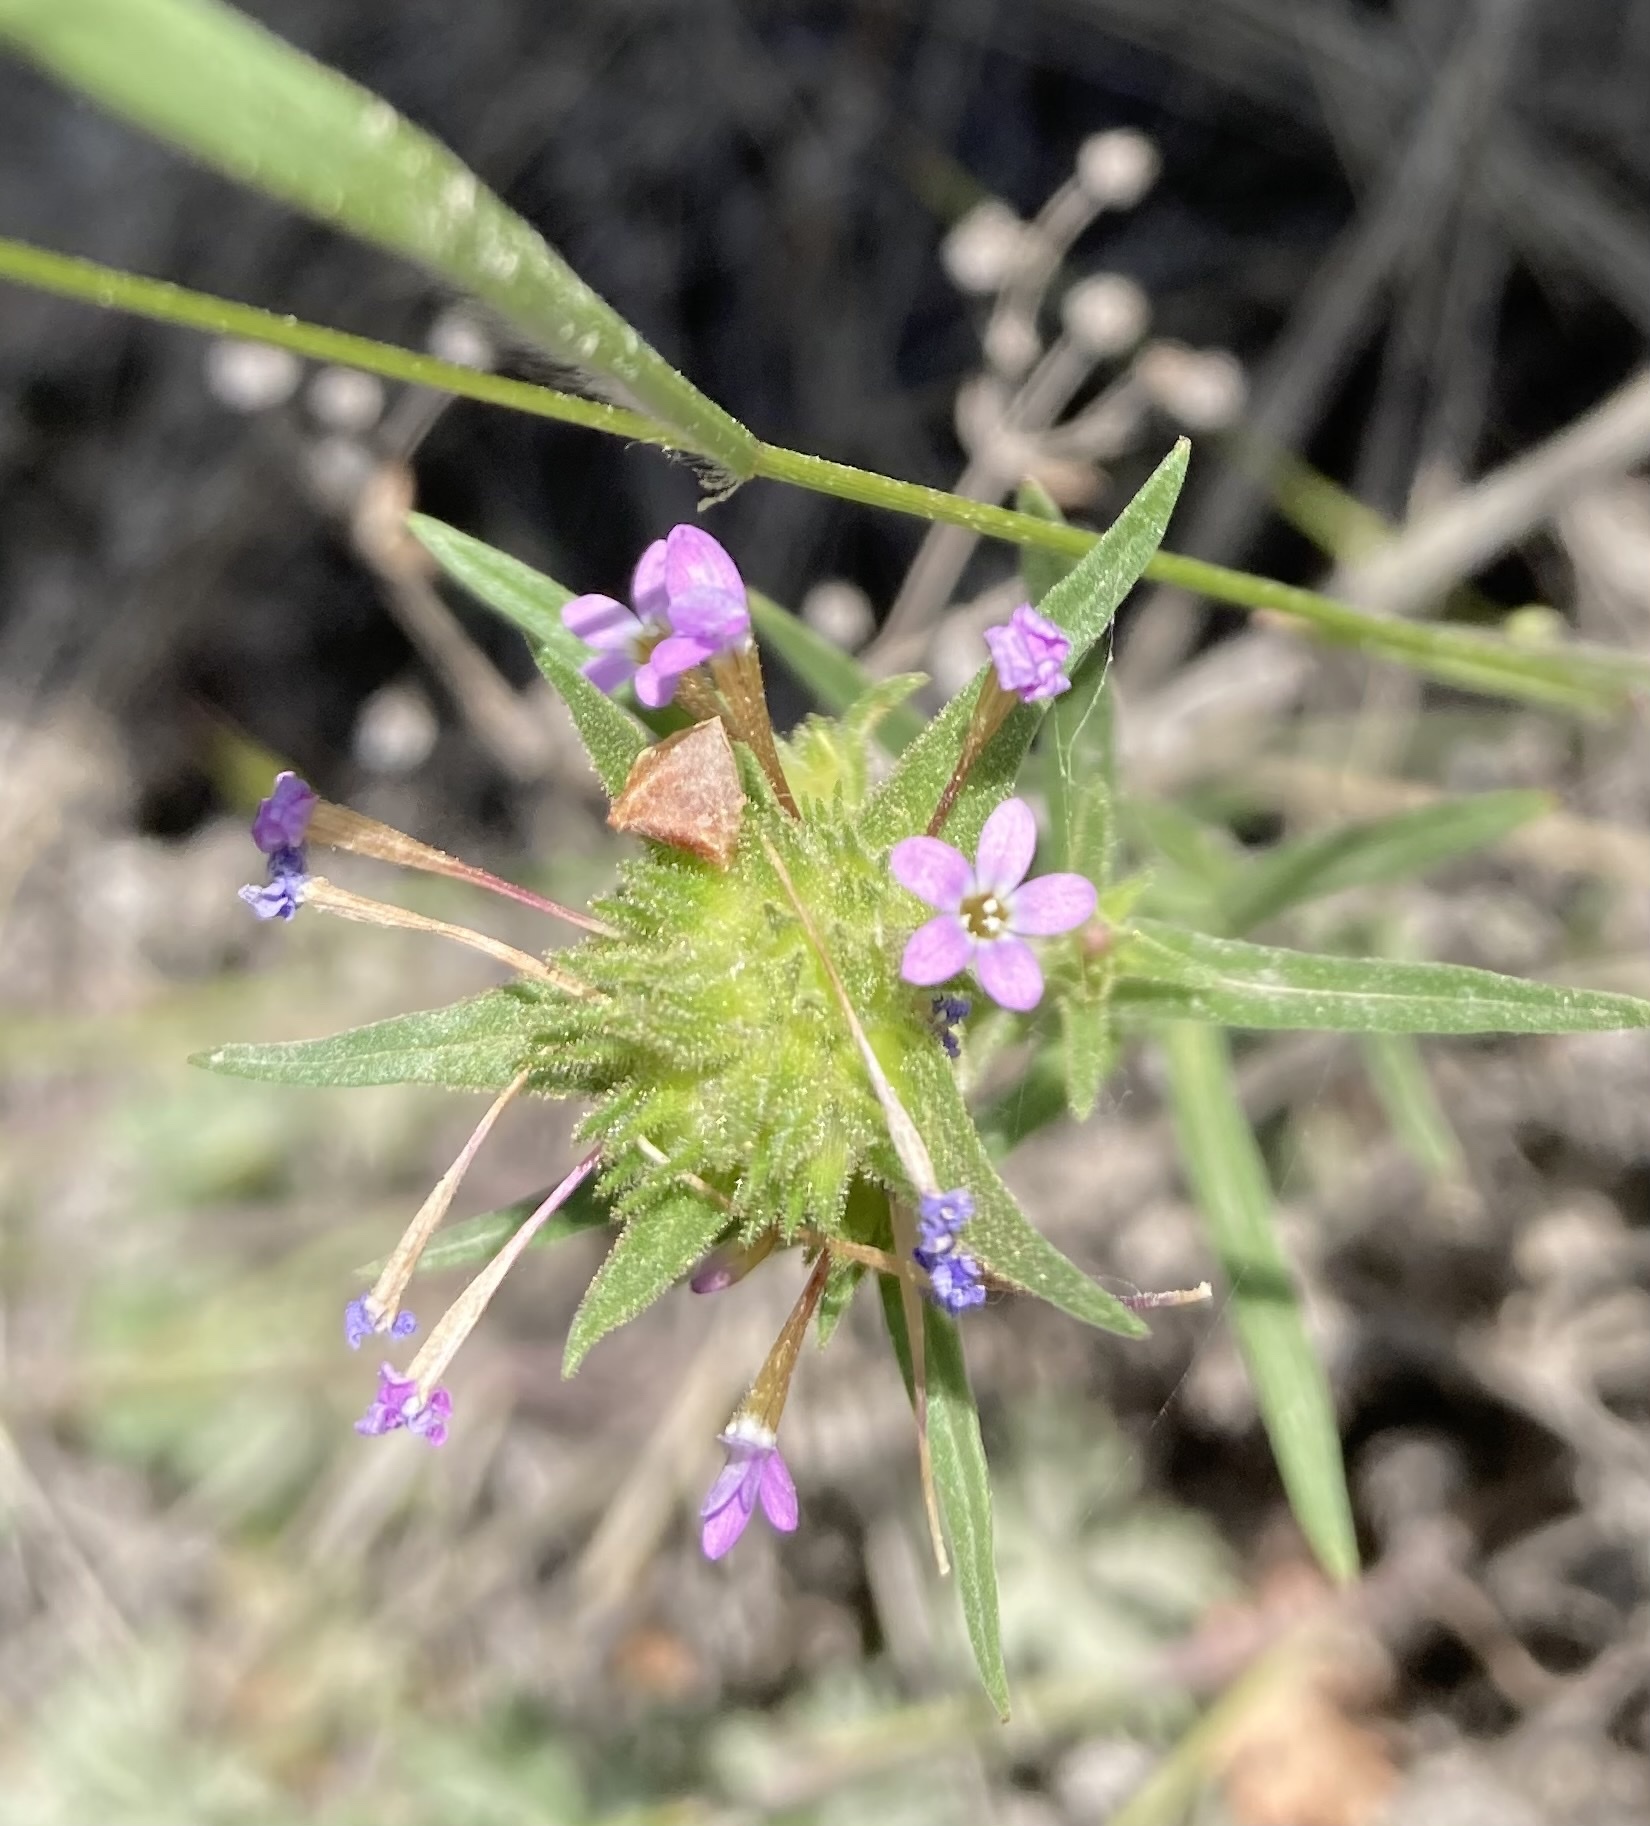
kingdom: Plantae
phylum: Tracheophyta
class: Magnoliopsida
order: Ericales
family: Polemoniaceae
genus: Collomia
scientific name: Collomia linearis
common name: Tiny trumpet
